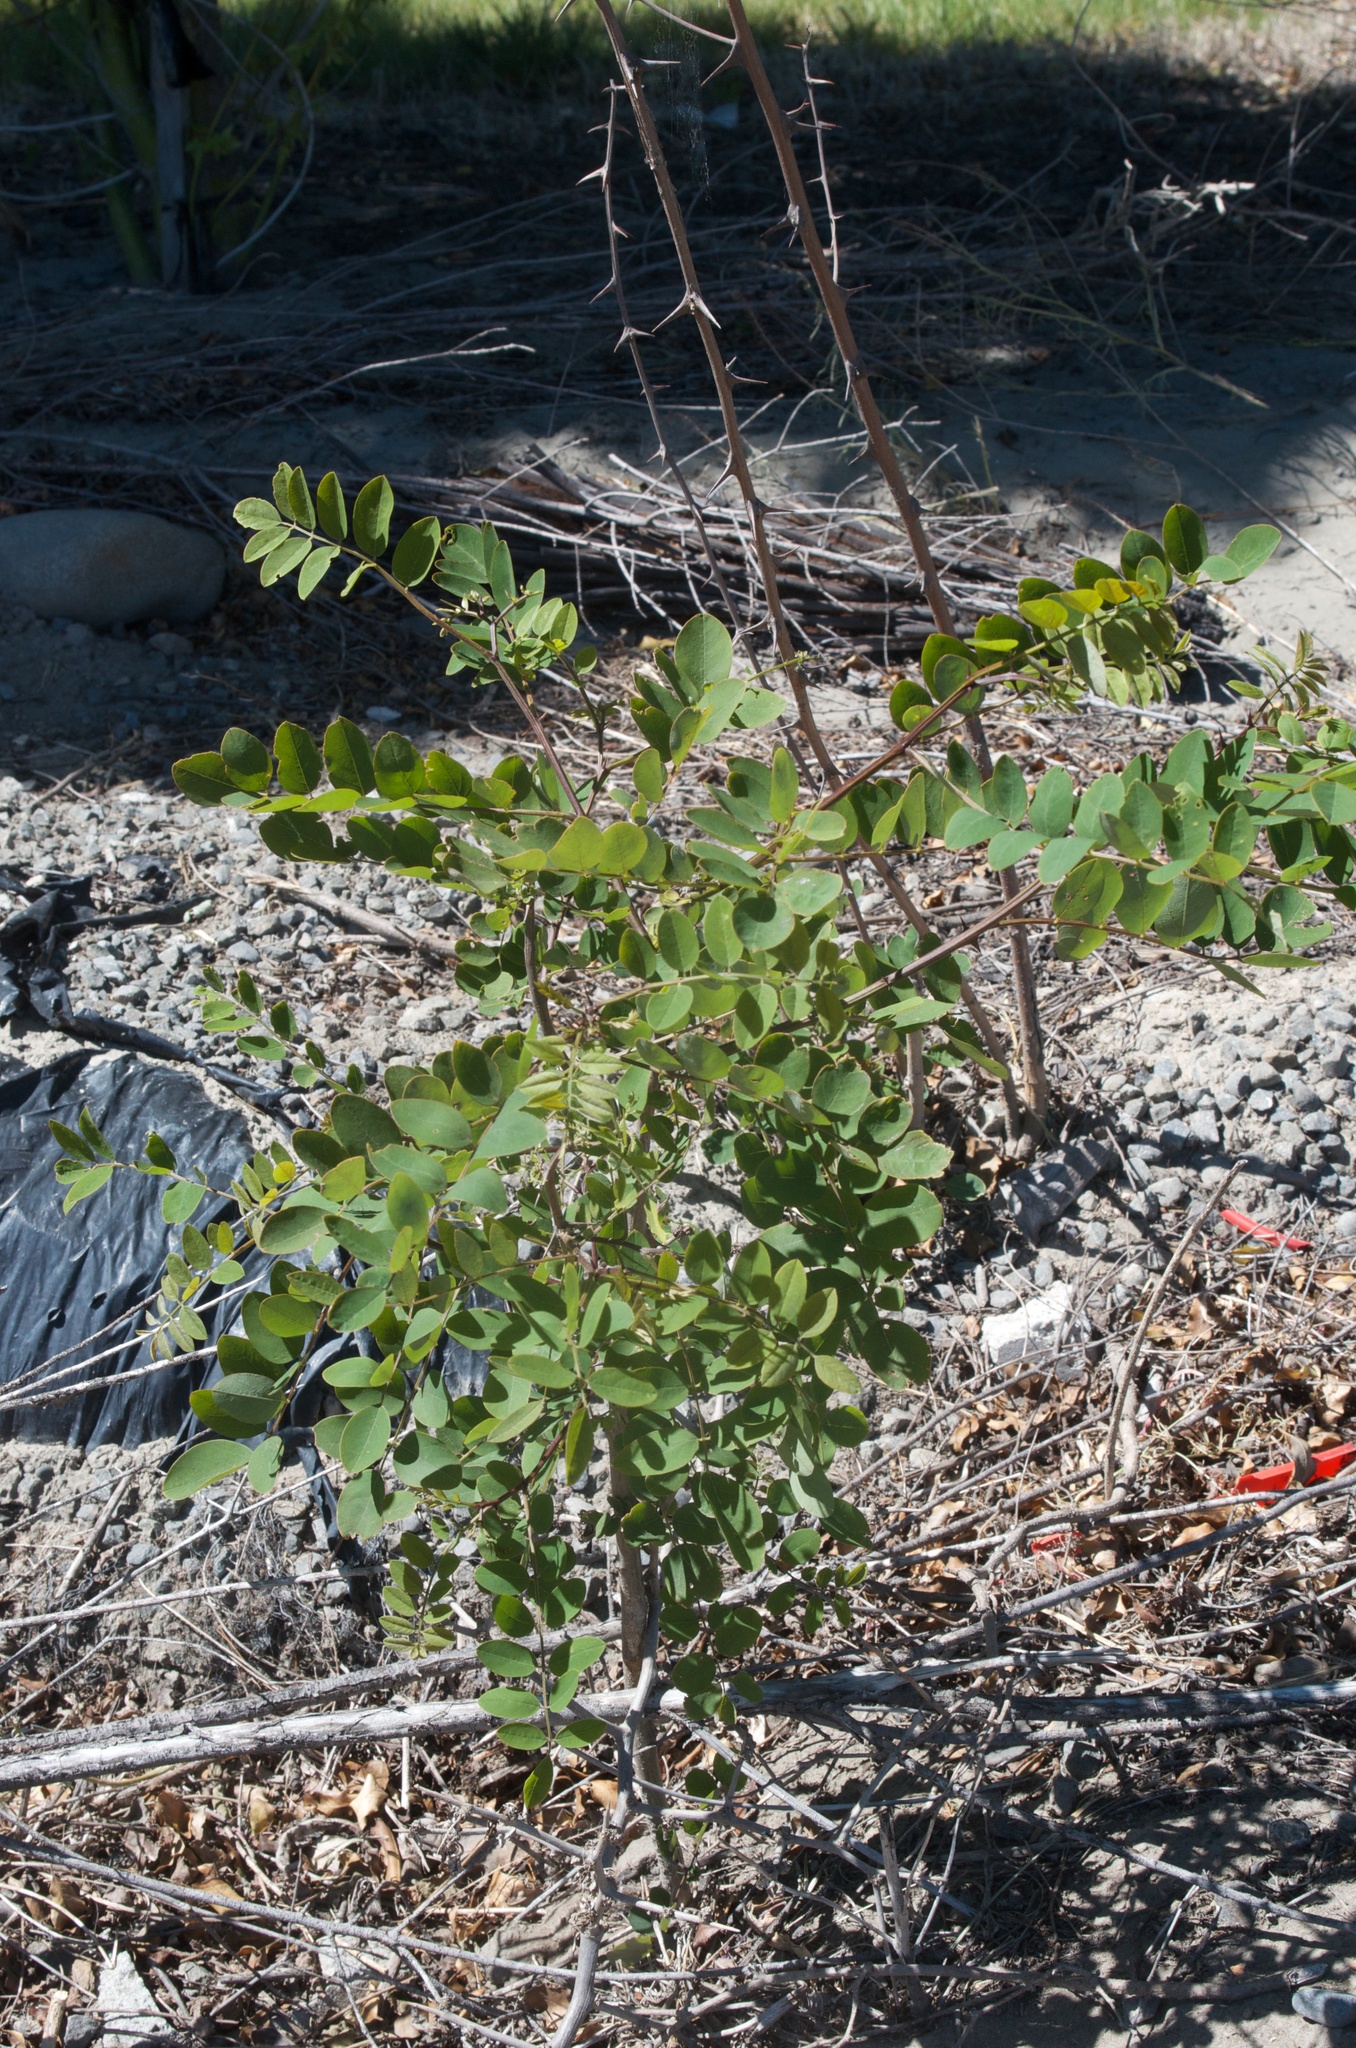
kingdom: Plantae
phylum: Tracheophyta
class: Magnoliopsida
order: Fabales
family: Fabaceae
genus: Robinia
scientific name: Robinia pseudoacacia
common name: Black locust
